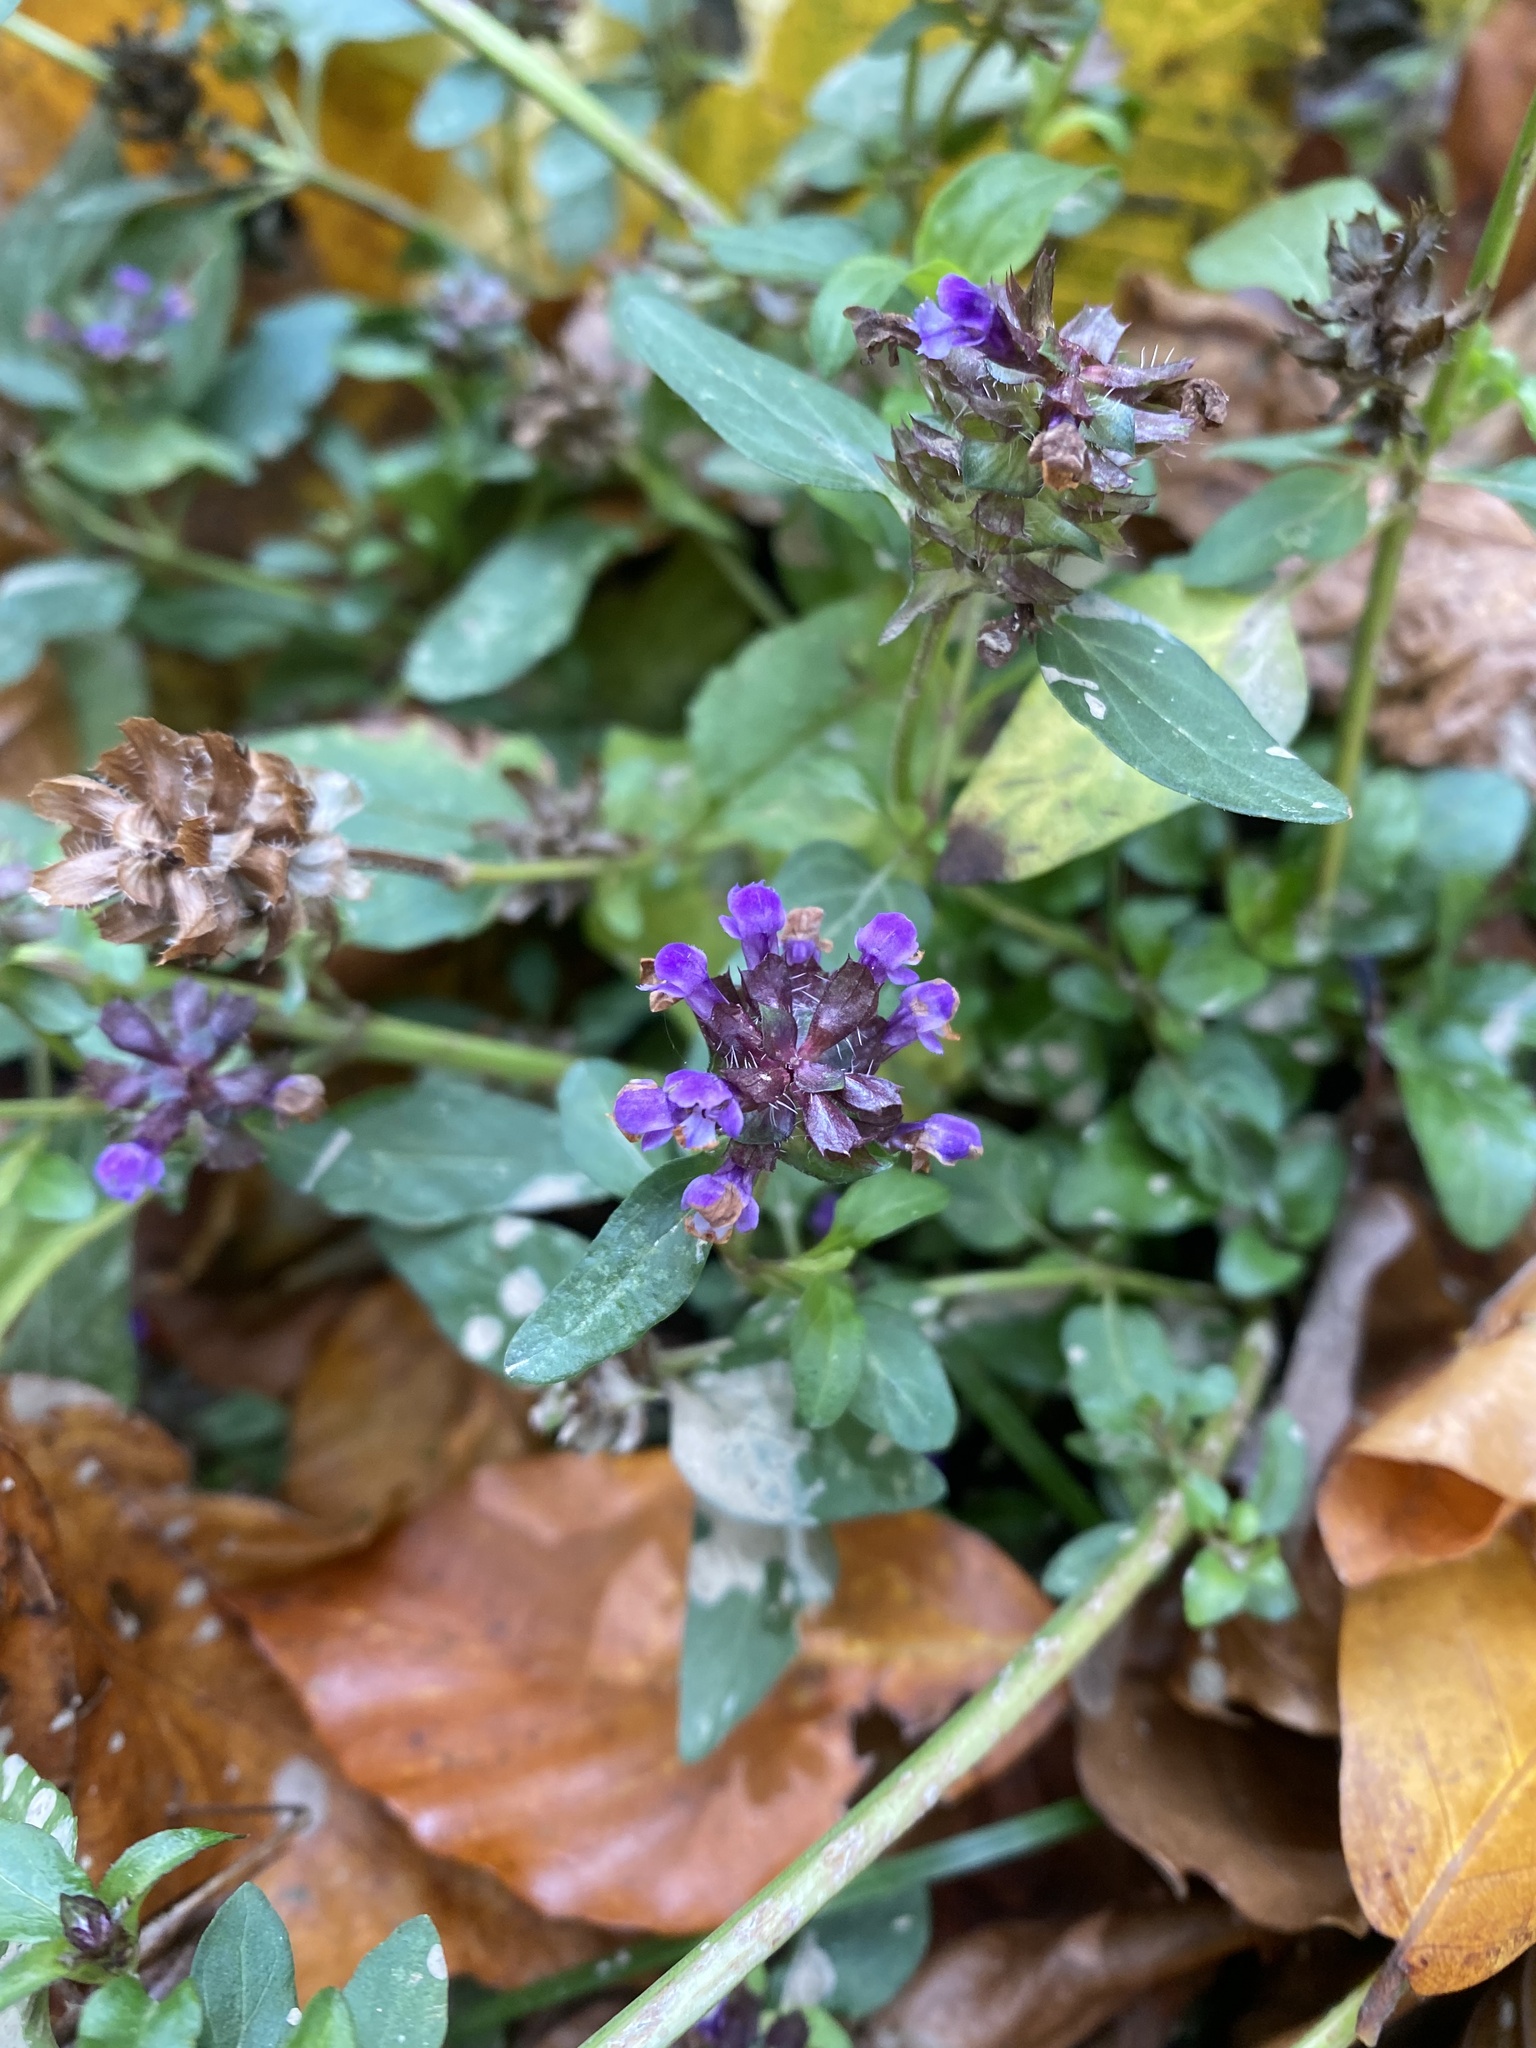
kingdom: Plantae
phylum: Tracheophyta
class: Magnoliopsida
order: Lamiales
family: Lamiaceae
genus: Prunella
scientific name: Prunella vulgaris
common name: Heal-all
